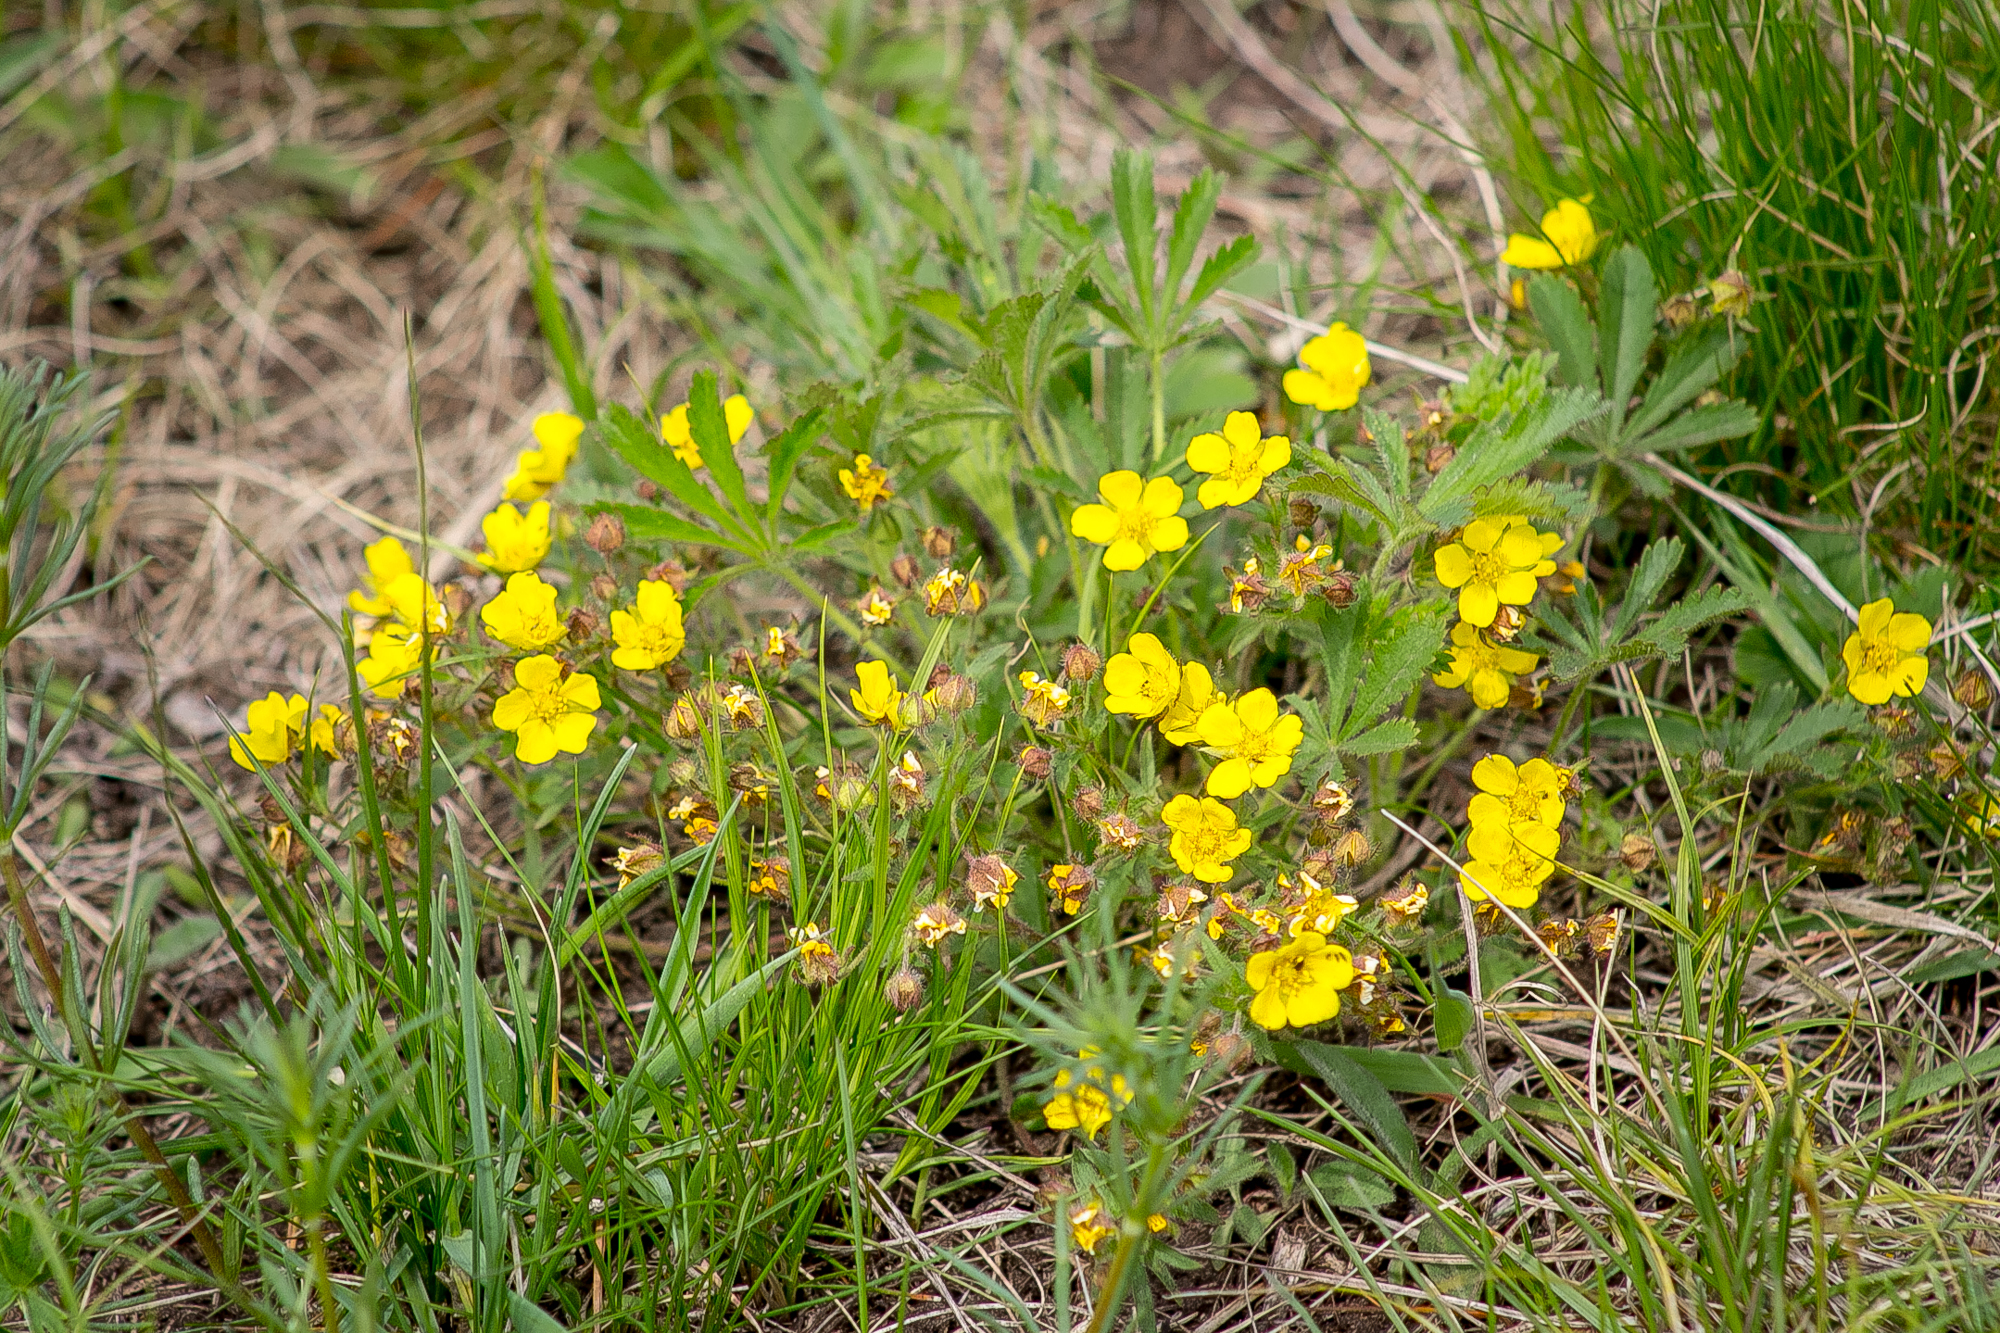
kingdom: Plantae
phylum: Tracheophyta
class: Magnoliopsida
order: Rosales
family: Rosaceae
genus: Potentilla
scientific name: Potentilla humifusa
